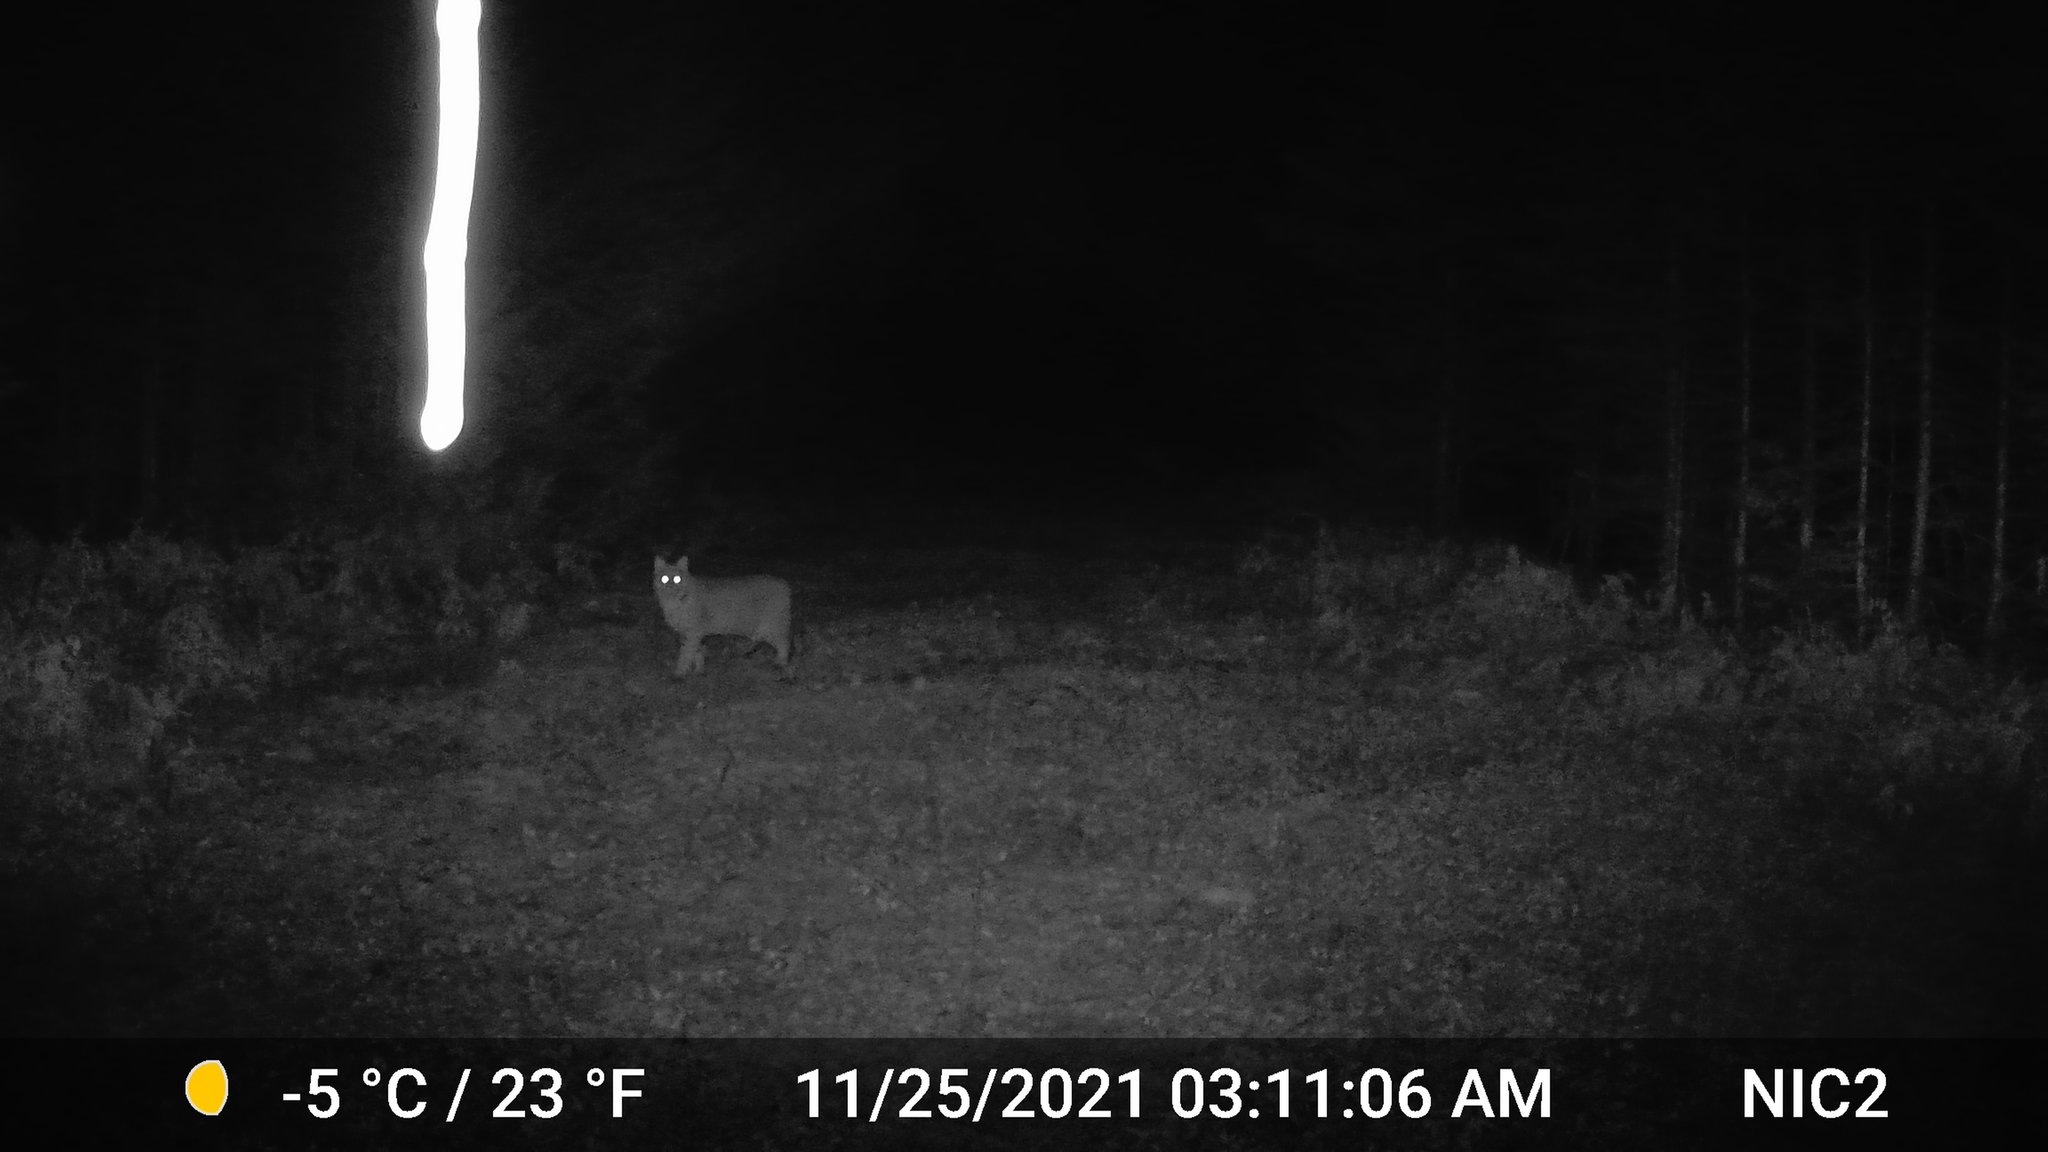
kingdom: Animalia
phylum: Chordata
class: Mammalia
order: Carnivora
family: Felidae
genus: Lynx
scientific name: Lynx rufus
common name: Bobcat
